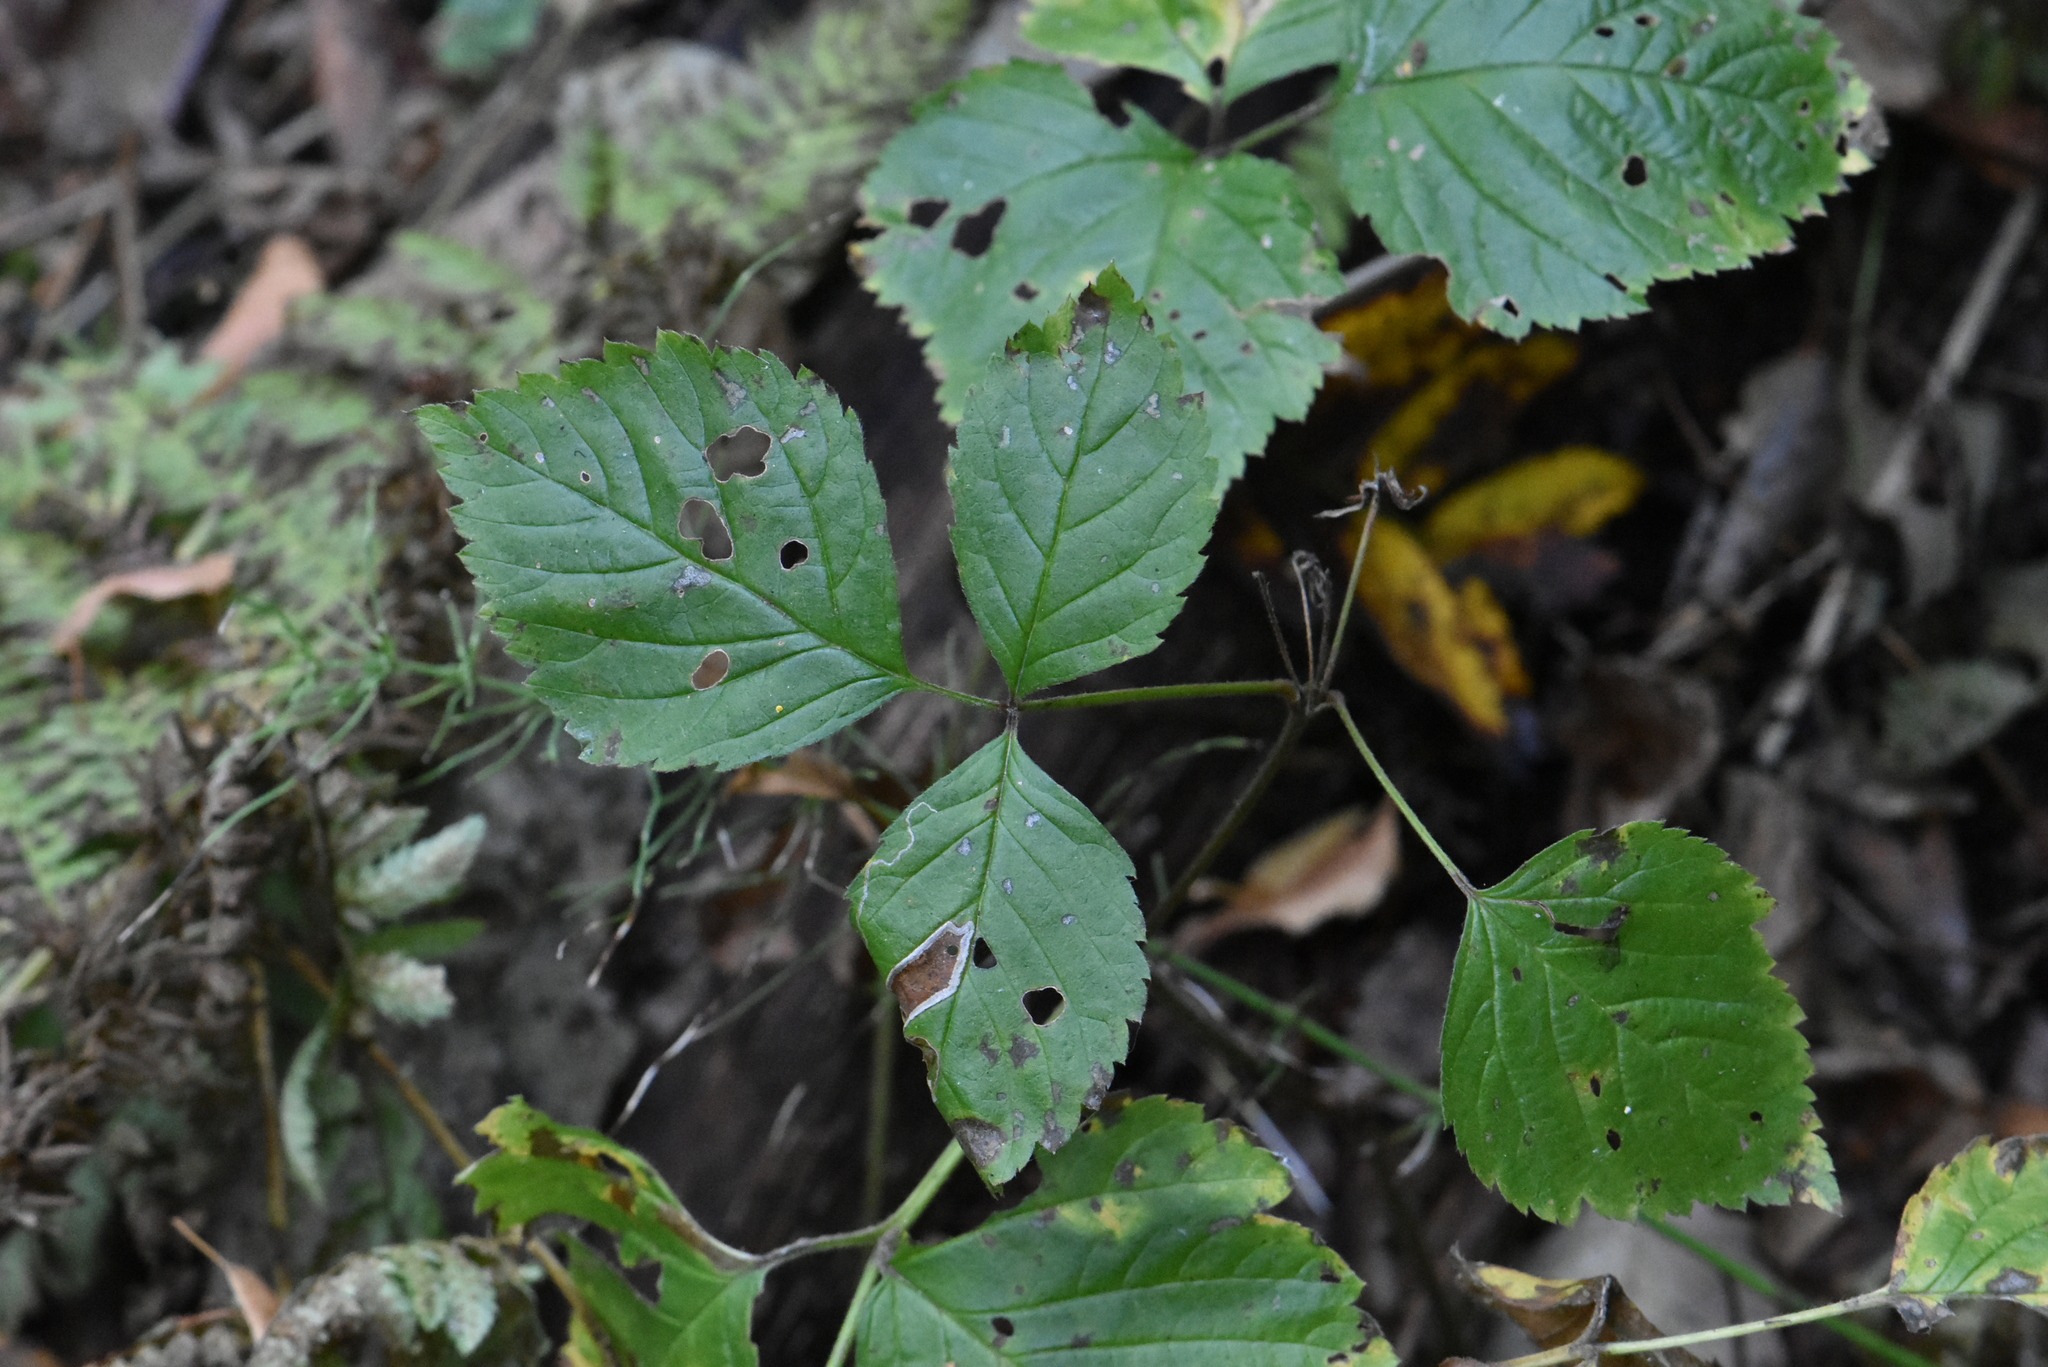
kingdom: Plantae
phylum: Tracheophyta
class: Magnoliopsida
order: Rosales
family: Rosaceae
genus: Rubus
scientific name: Rubus saxatilis
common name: Stone bramble
